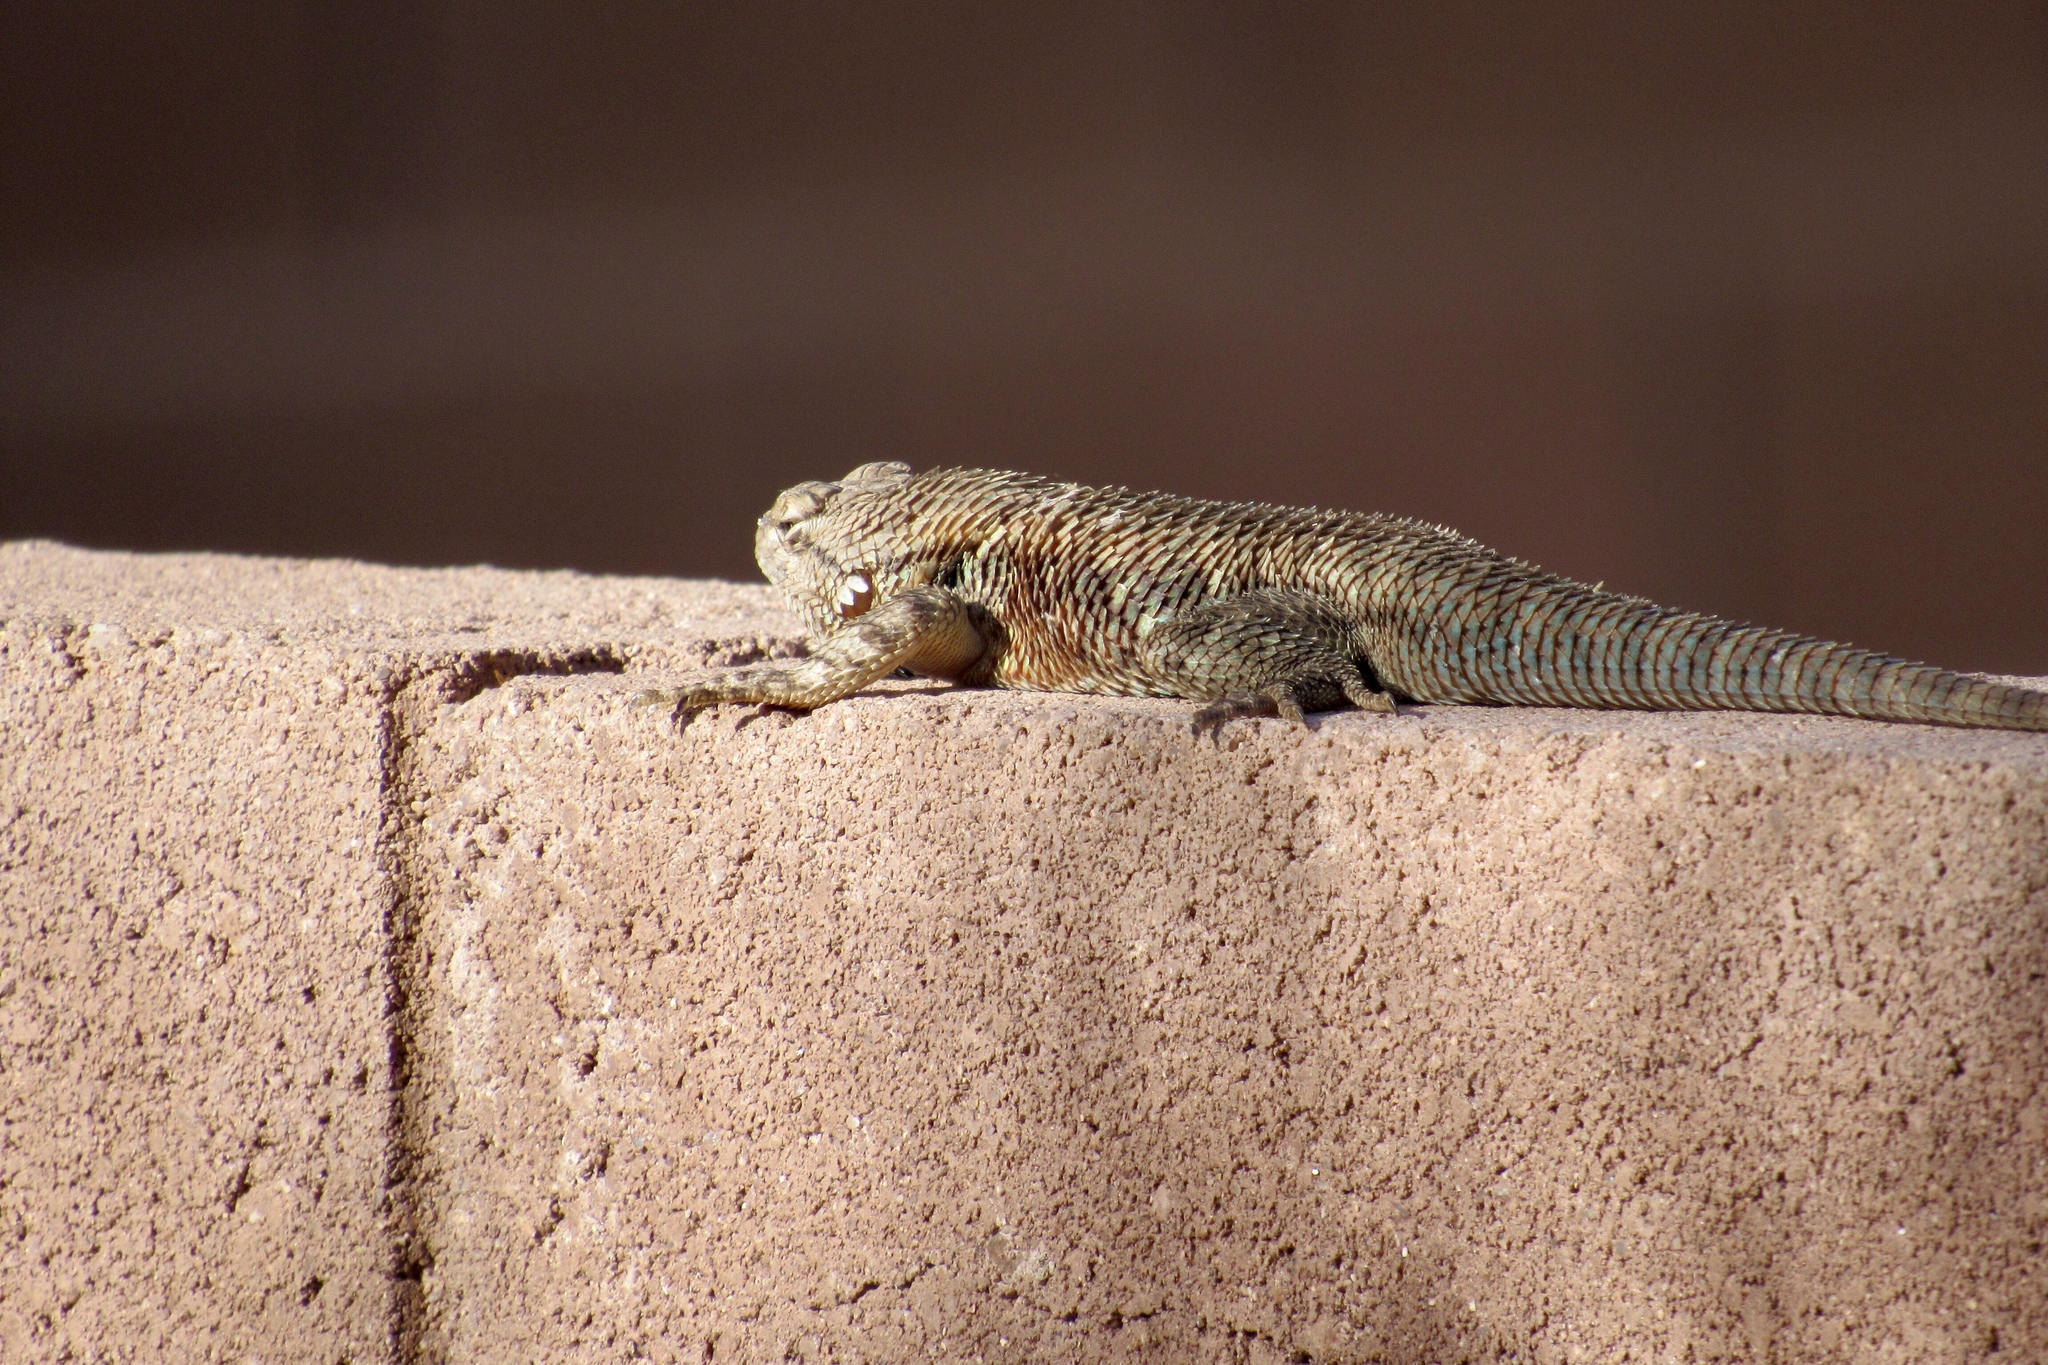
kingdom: Animalia
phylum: Chordata
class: Squamata
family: Phrynosomatidae
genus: Sceloporus
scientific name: Sceloporus magister
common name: Desert spiny lizard
